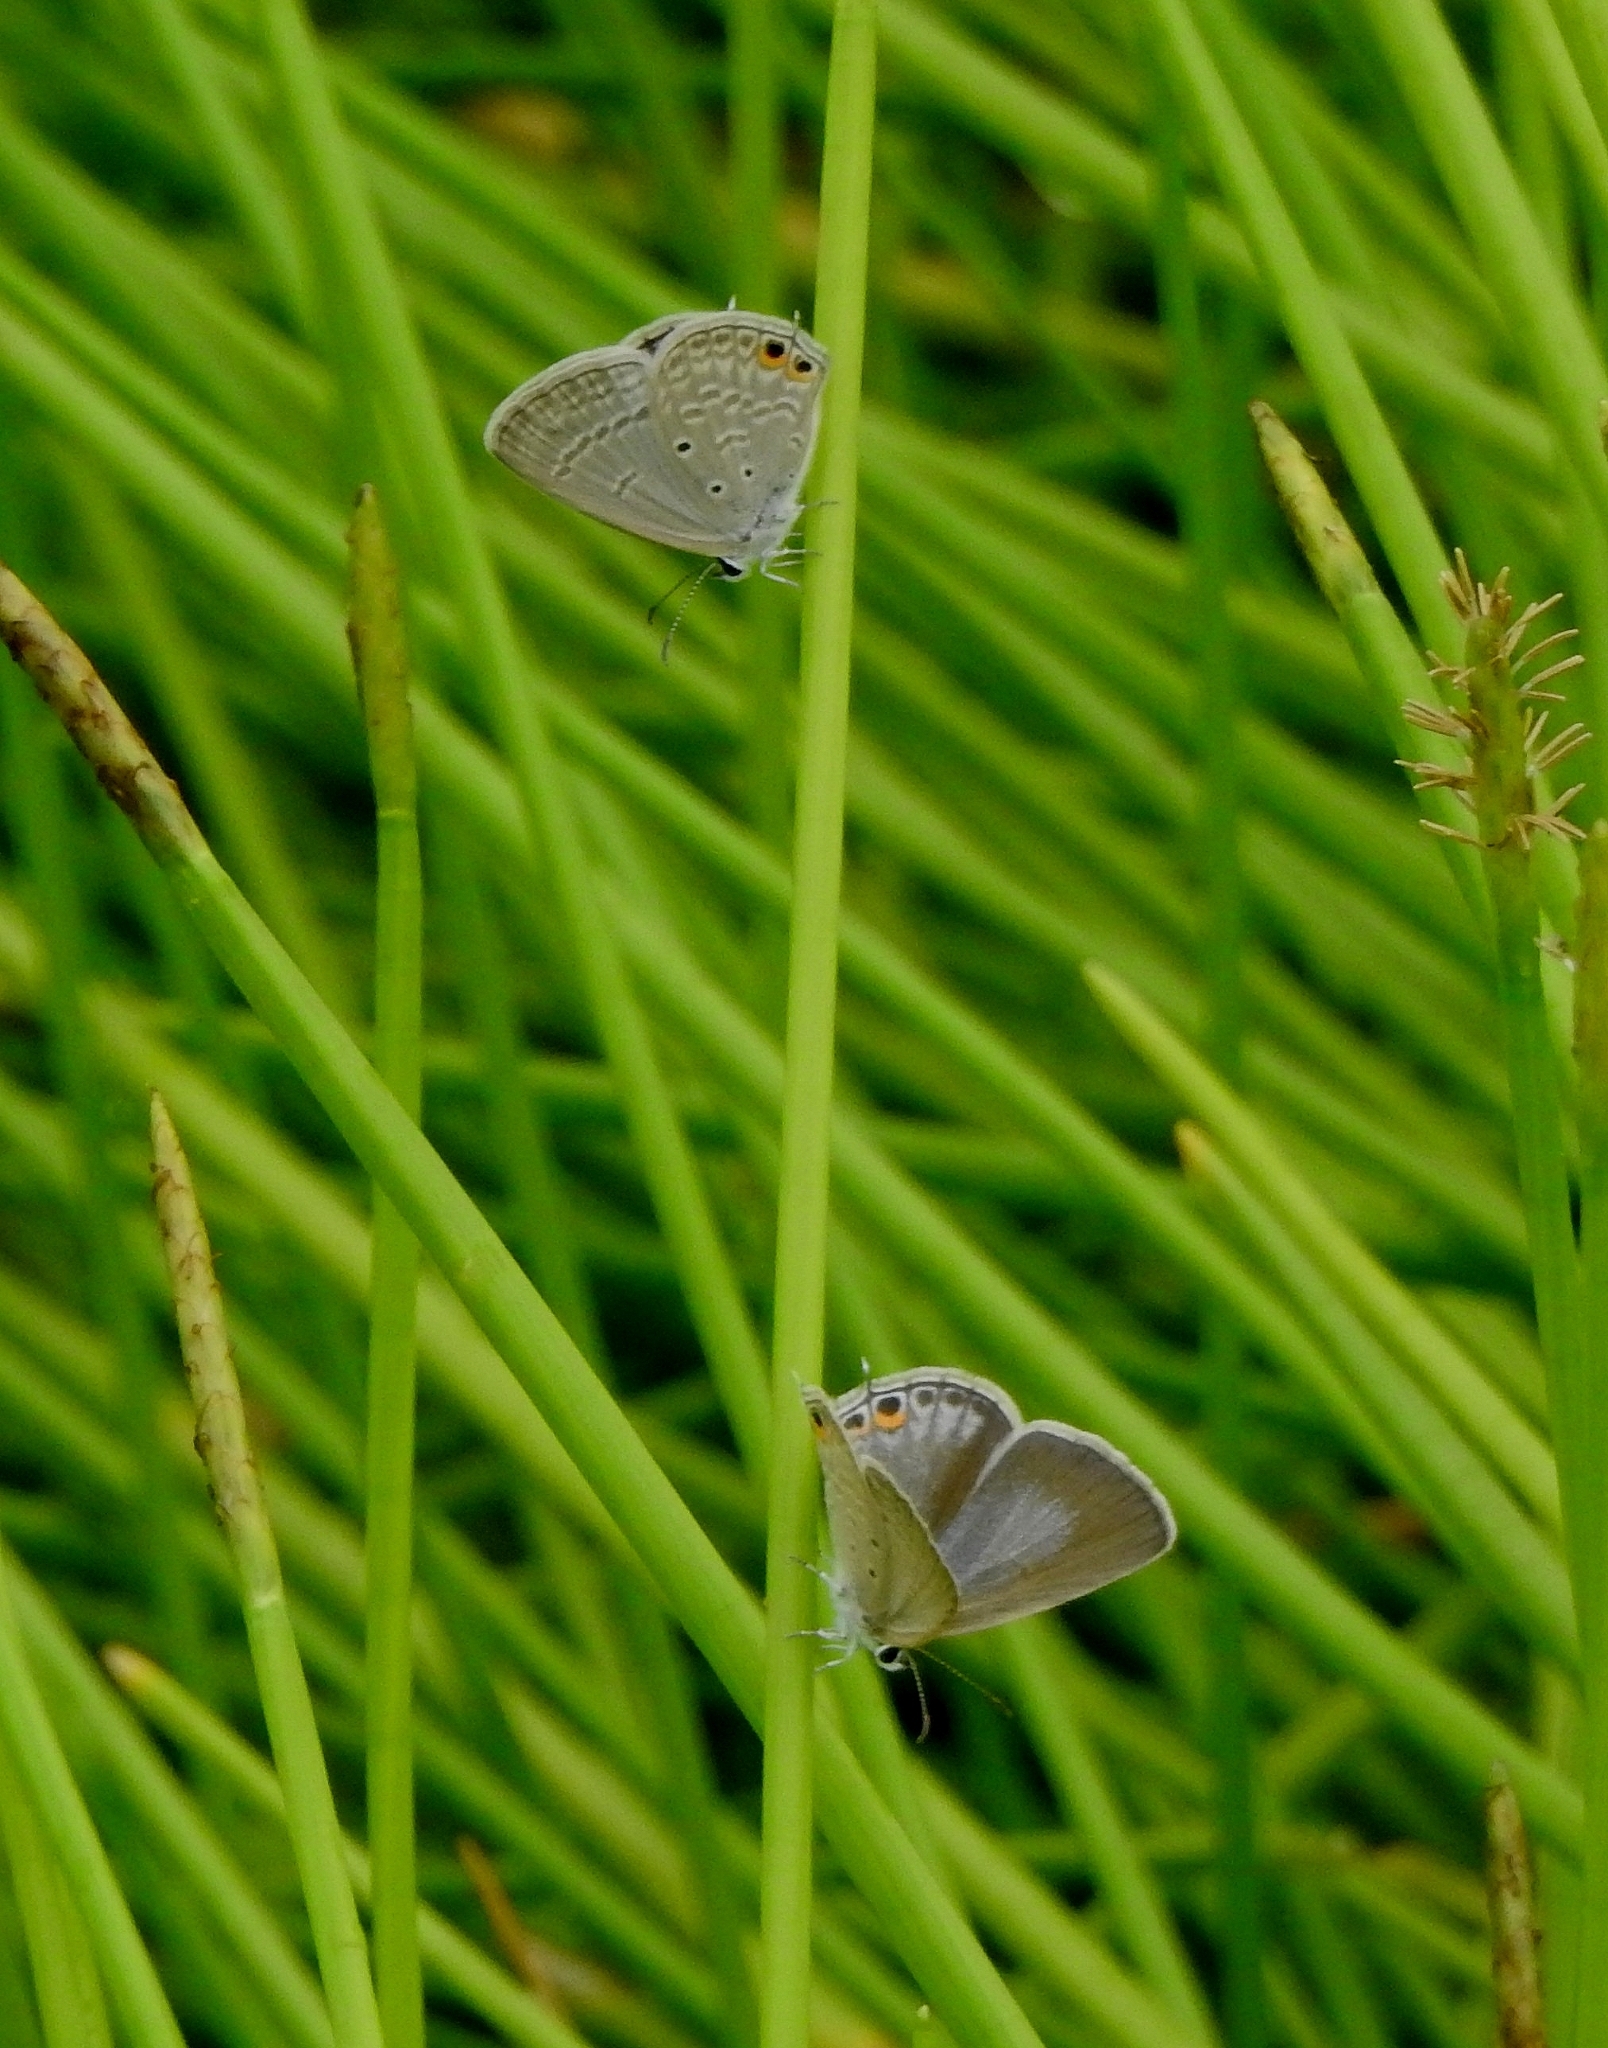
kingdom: Animalia
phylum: Arthropoda
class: Insecta
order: Lepidoptera
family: Lycaenidae
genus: Euchrysops
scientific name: Euchrysops cnejus
